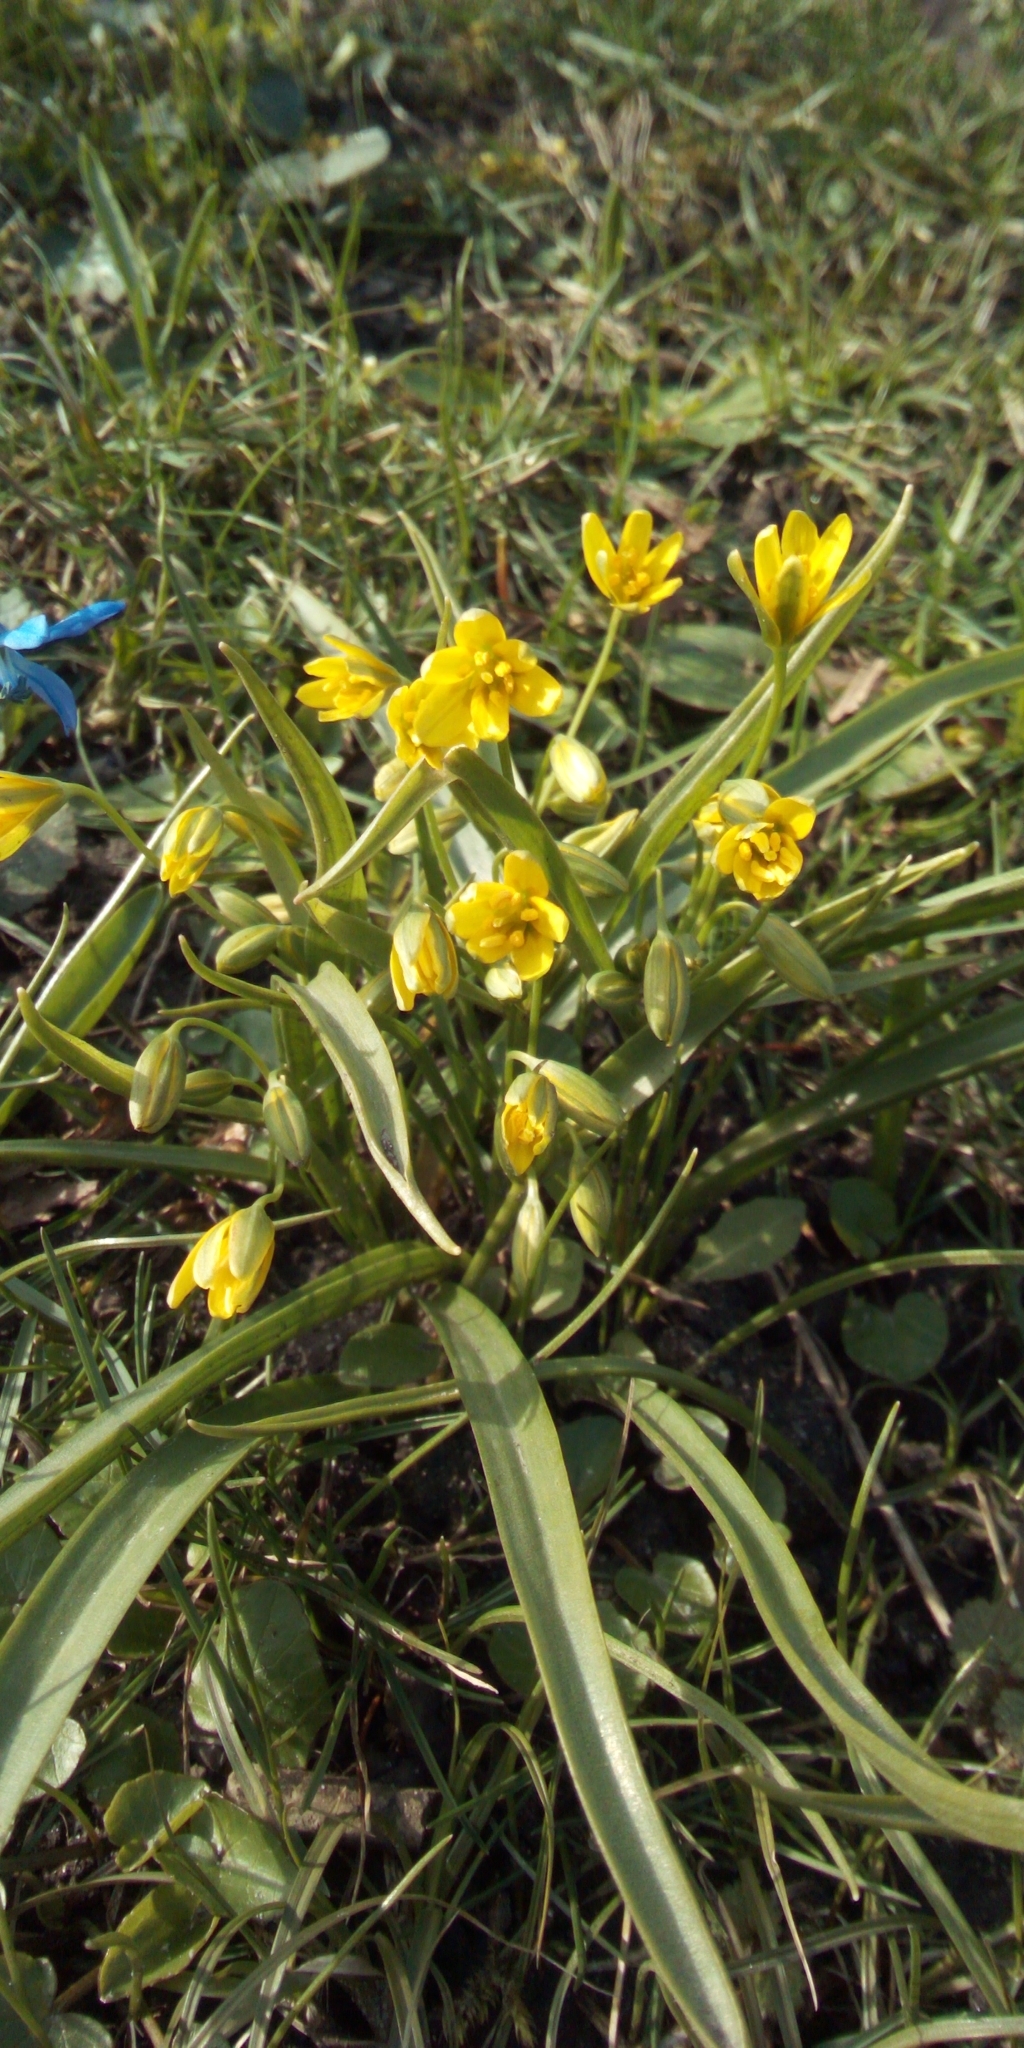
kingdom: Plantae
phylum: Tracheophyta
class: Liliopsida
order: Liliales
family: Liliaceae
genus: Gagea
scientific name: Gagea lutea
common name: Yellow star-of-bethlehem
